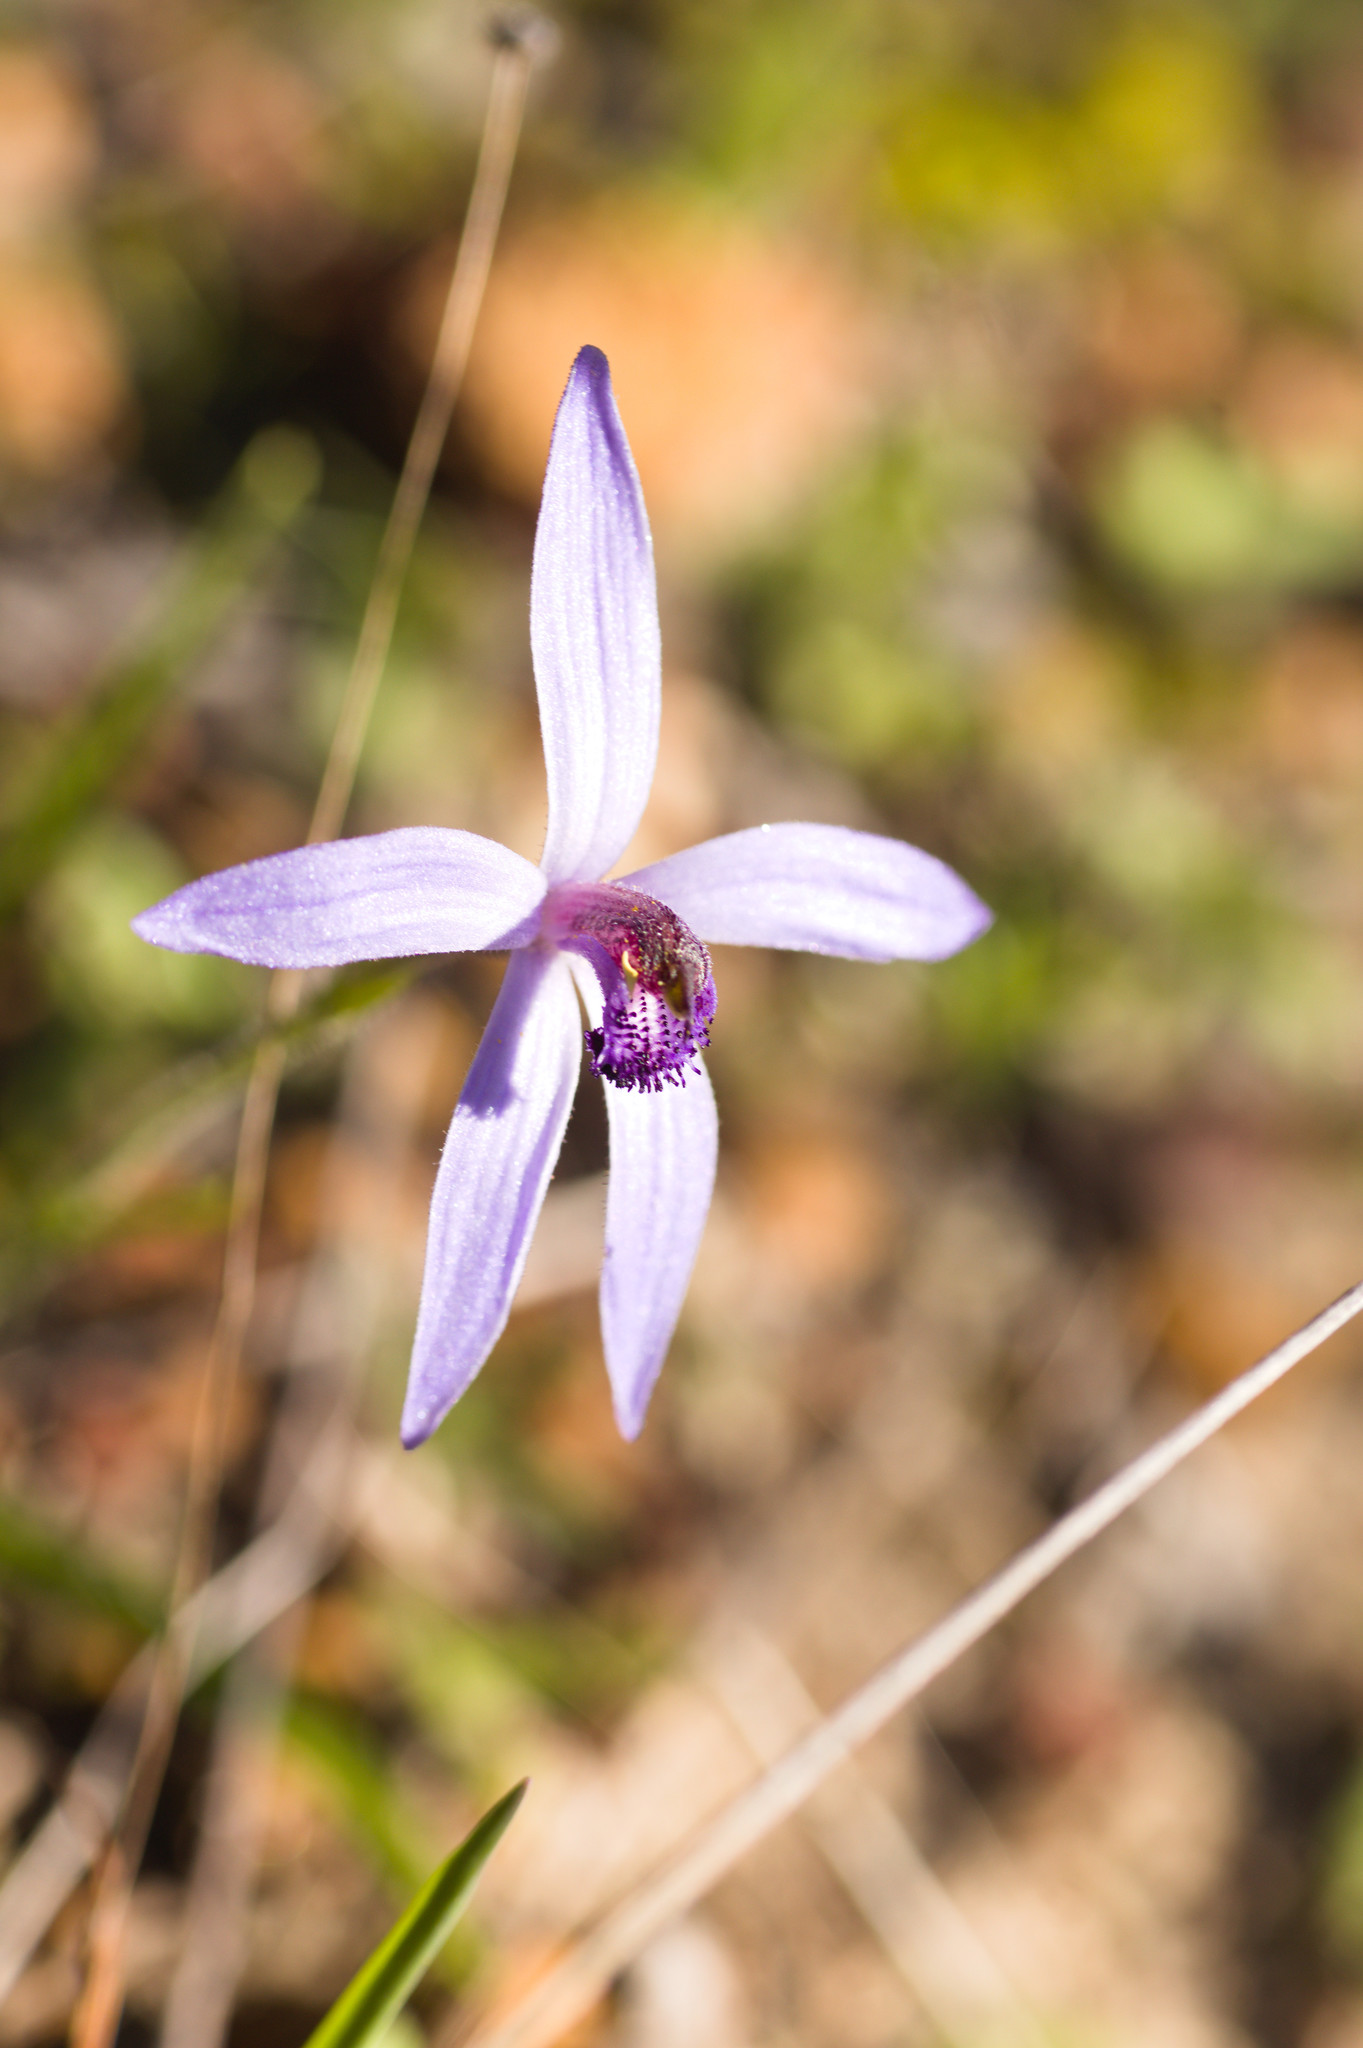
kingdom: Plantae
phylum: Tracheophyta
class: Liliopsida
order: Asparagales
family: Orchidaceae
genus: Pheladenia
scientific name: Pheladenia deformis
